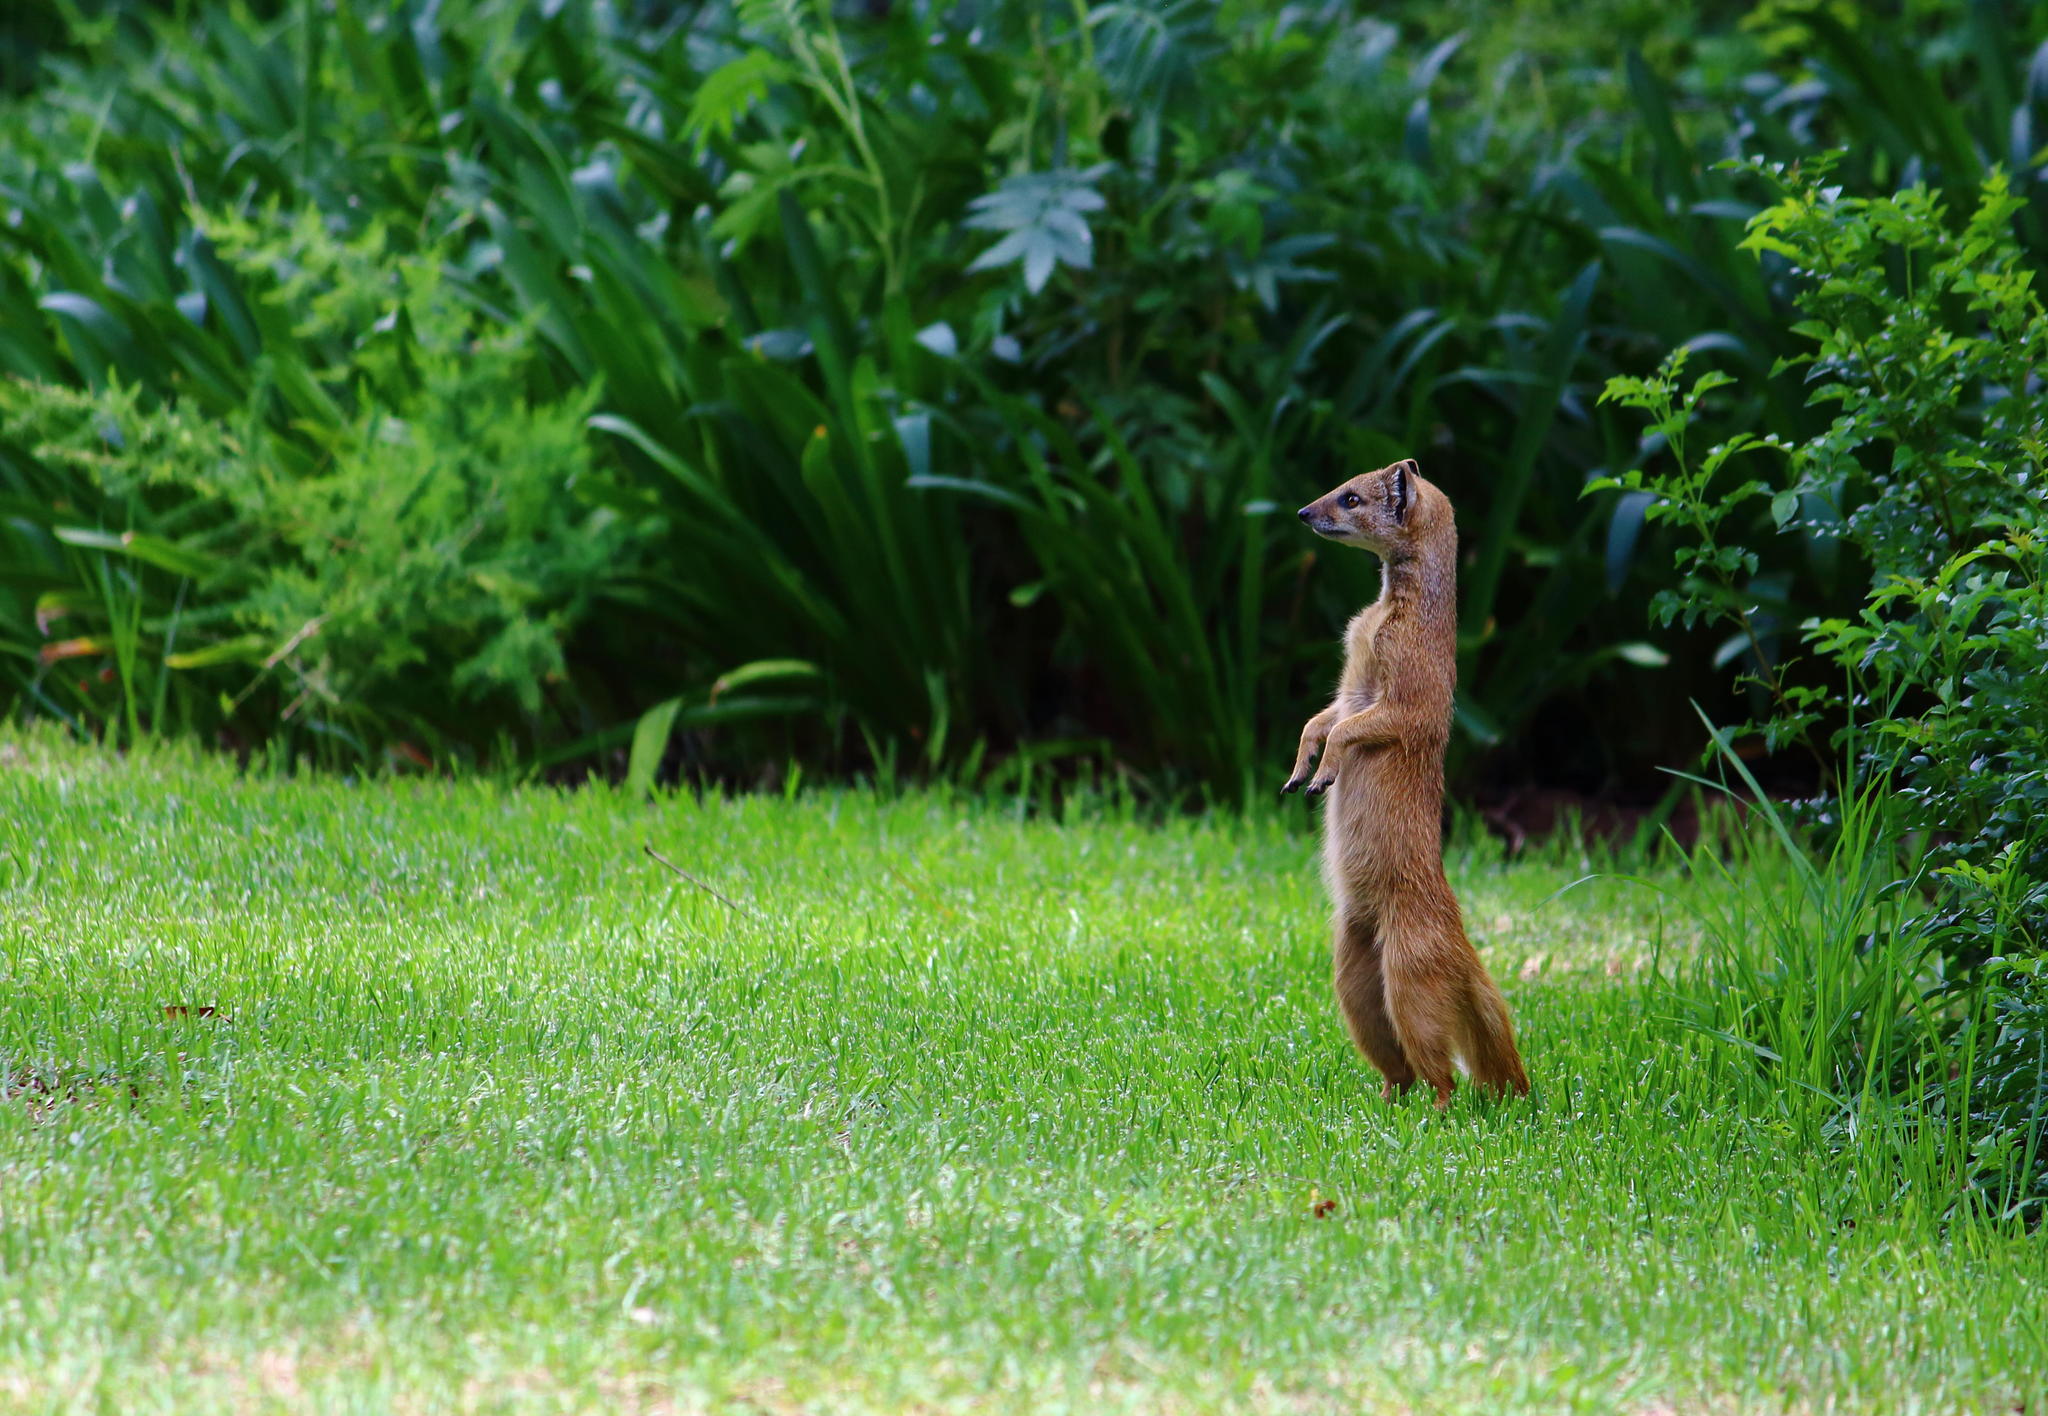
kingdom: Animalia
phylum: Chordata
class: Mammalia
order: Carnivora
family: Herpestidae
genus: Cynictis
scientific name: Cynictis penicillata
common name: Yellow mongoose
